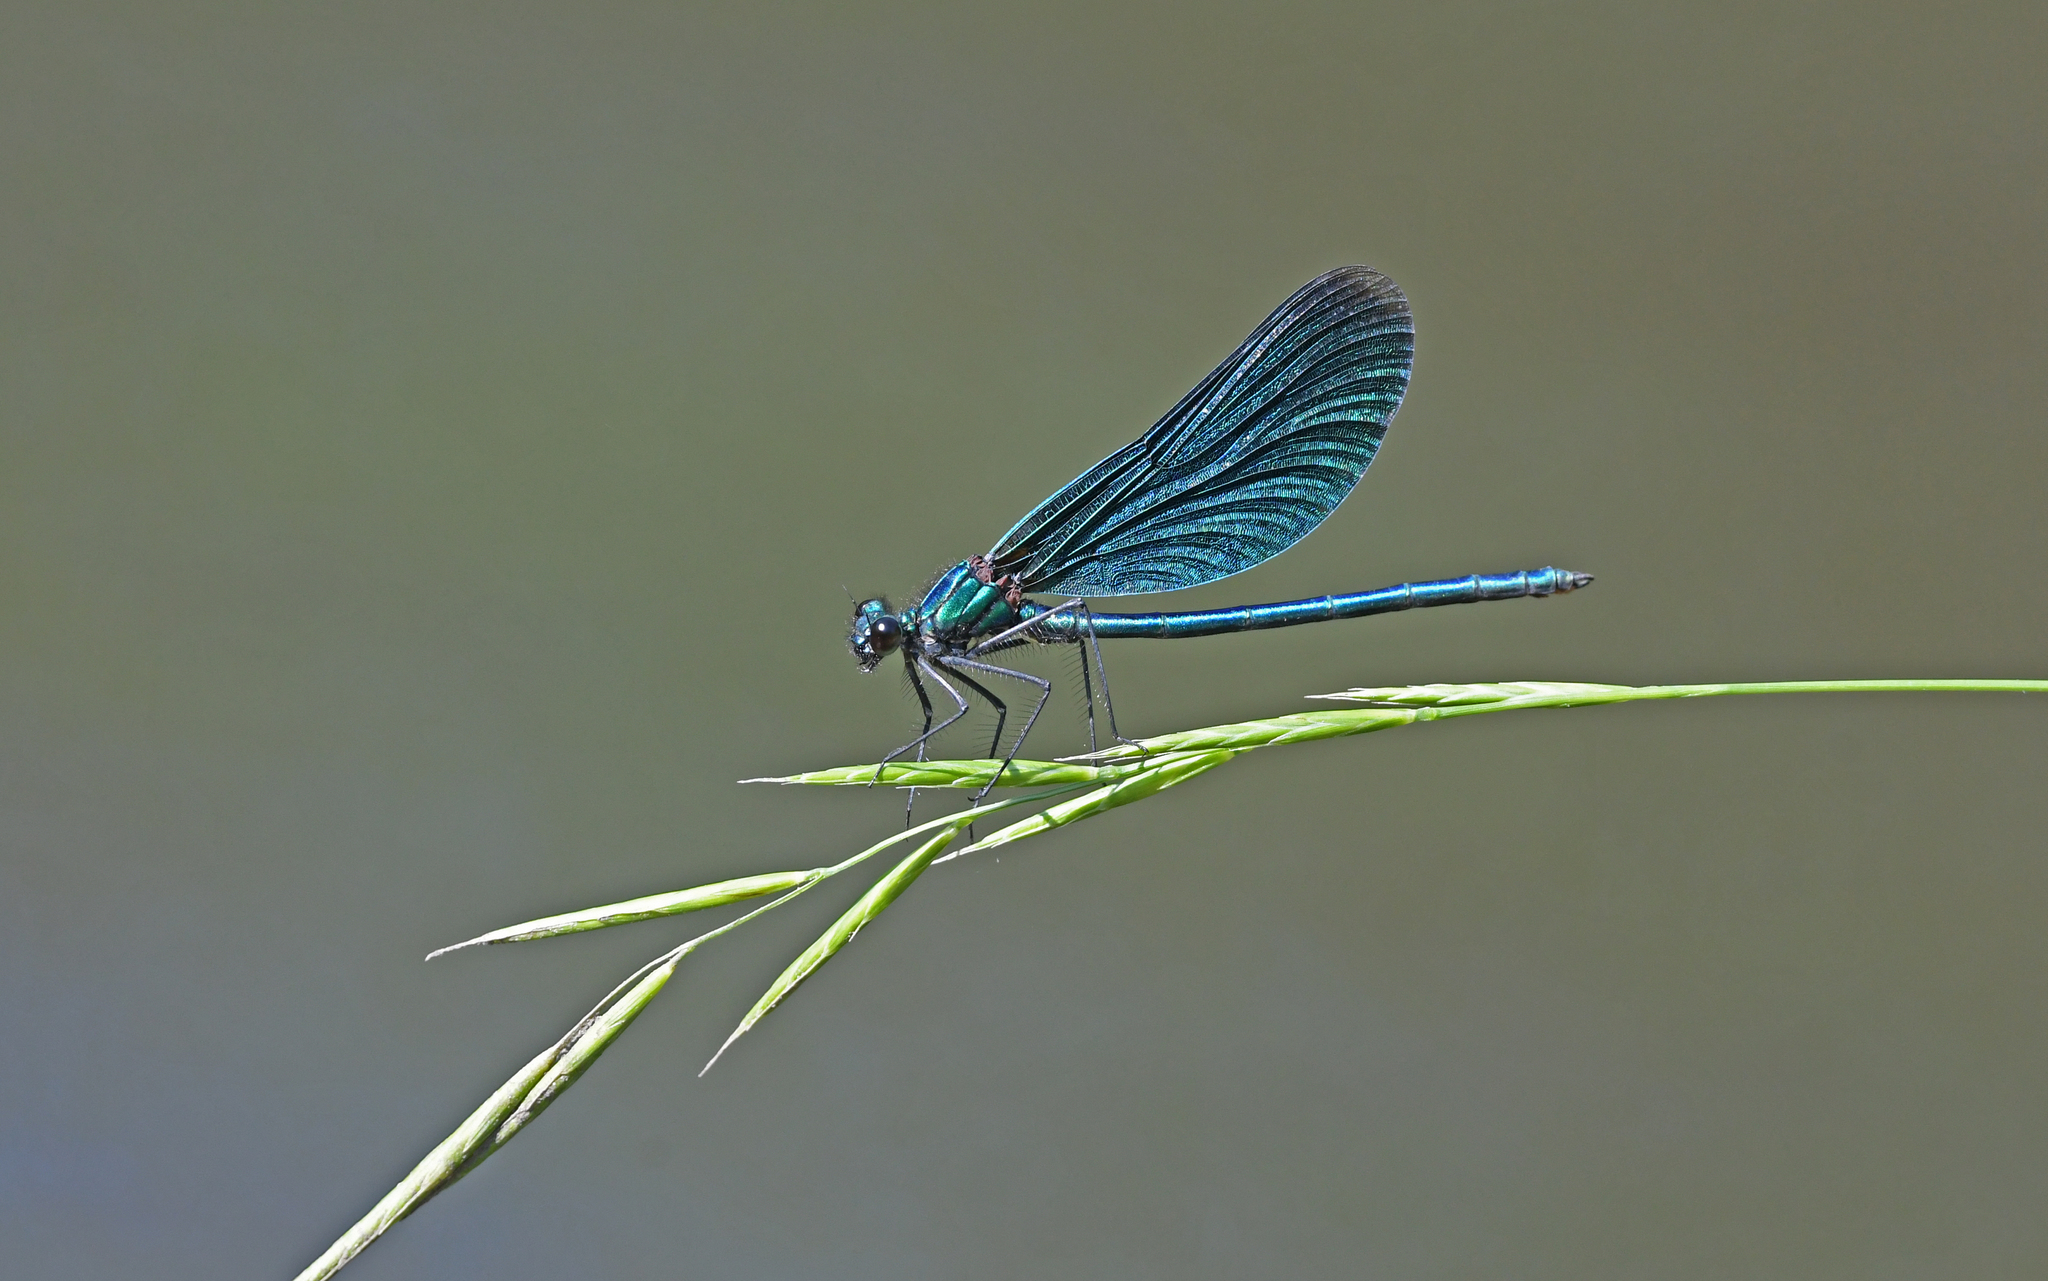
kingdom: Animalia
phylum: Arthropoda
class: Insecta
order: Odonata
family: Calopterygidae
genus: Calopteryx
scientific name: Calopteryx virgo
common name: Beautiful demoiselle
